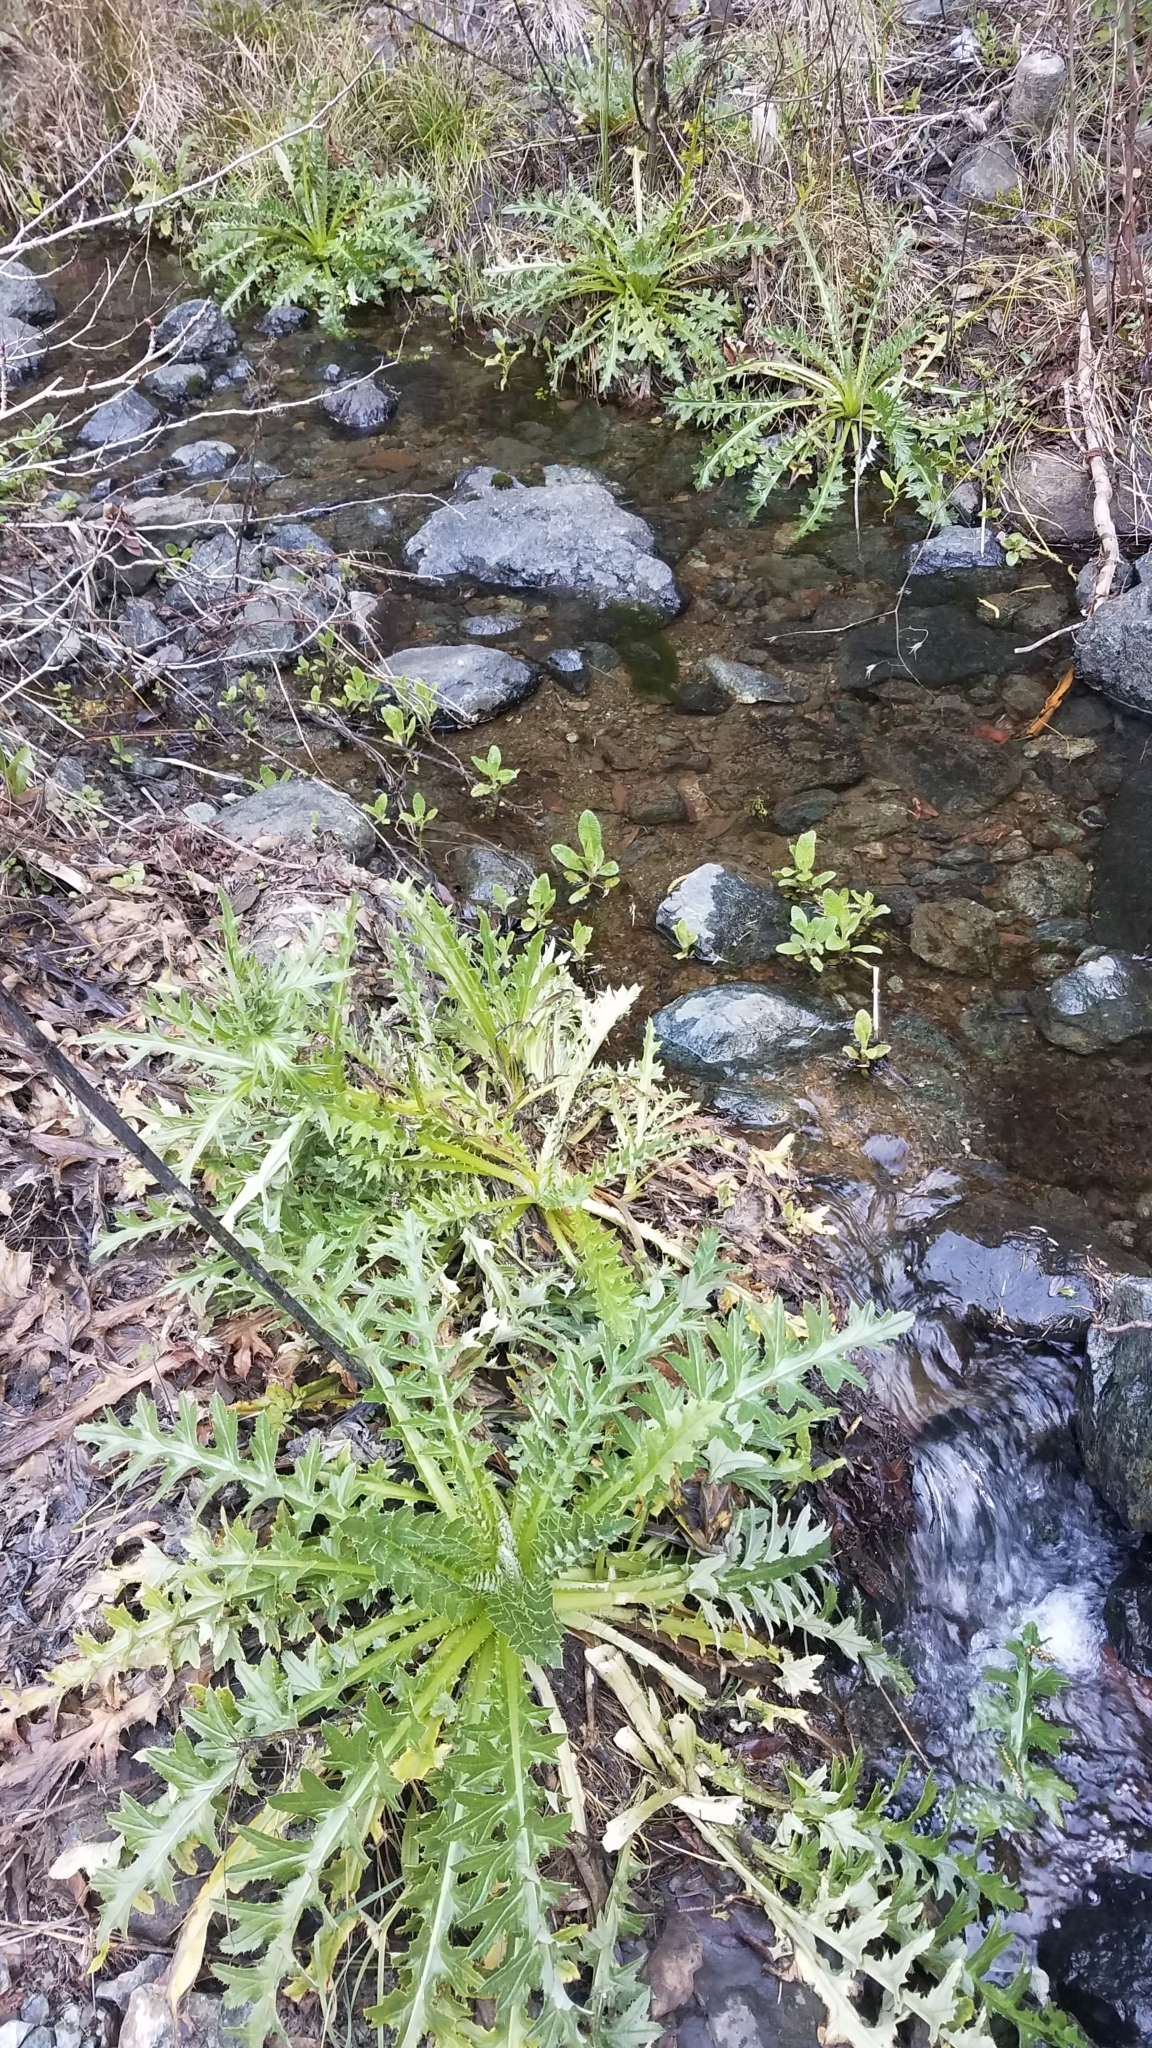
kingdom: Plantae
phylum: Tracheophyta
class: Magnoliopsida
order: Asterales
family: Asteraceae
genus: Cirsium
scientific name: Cirsium hydrophilum
